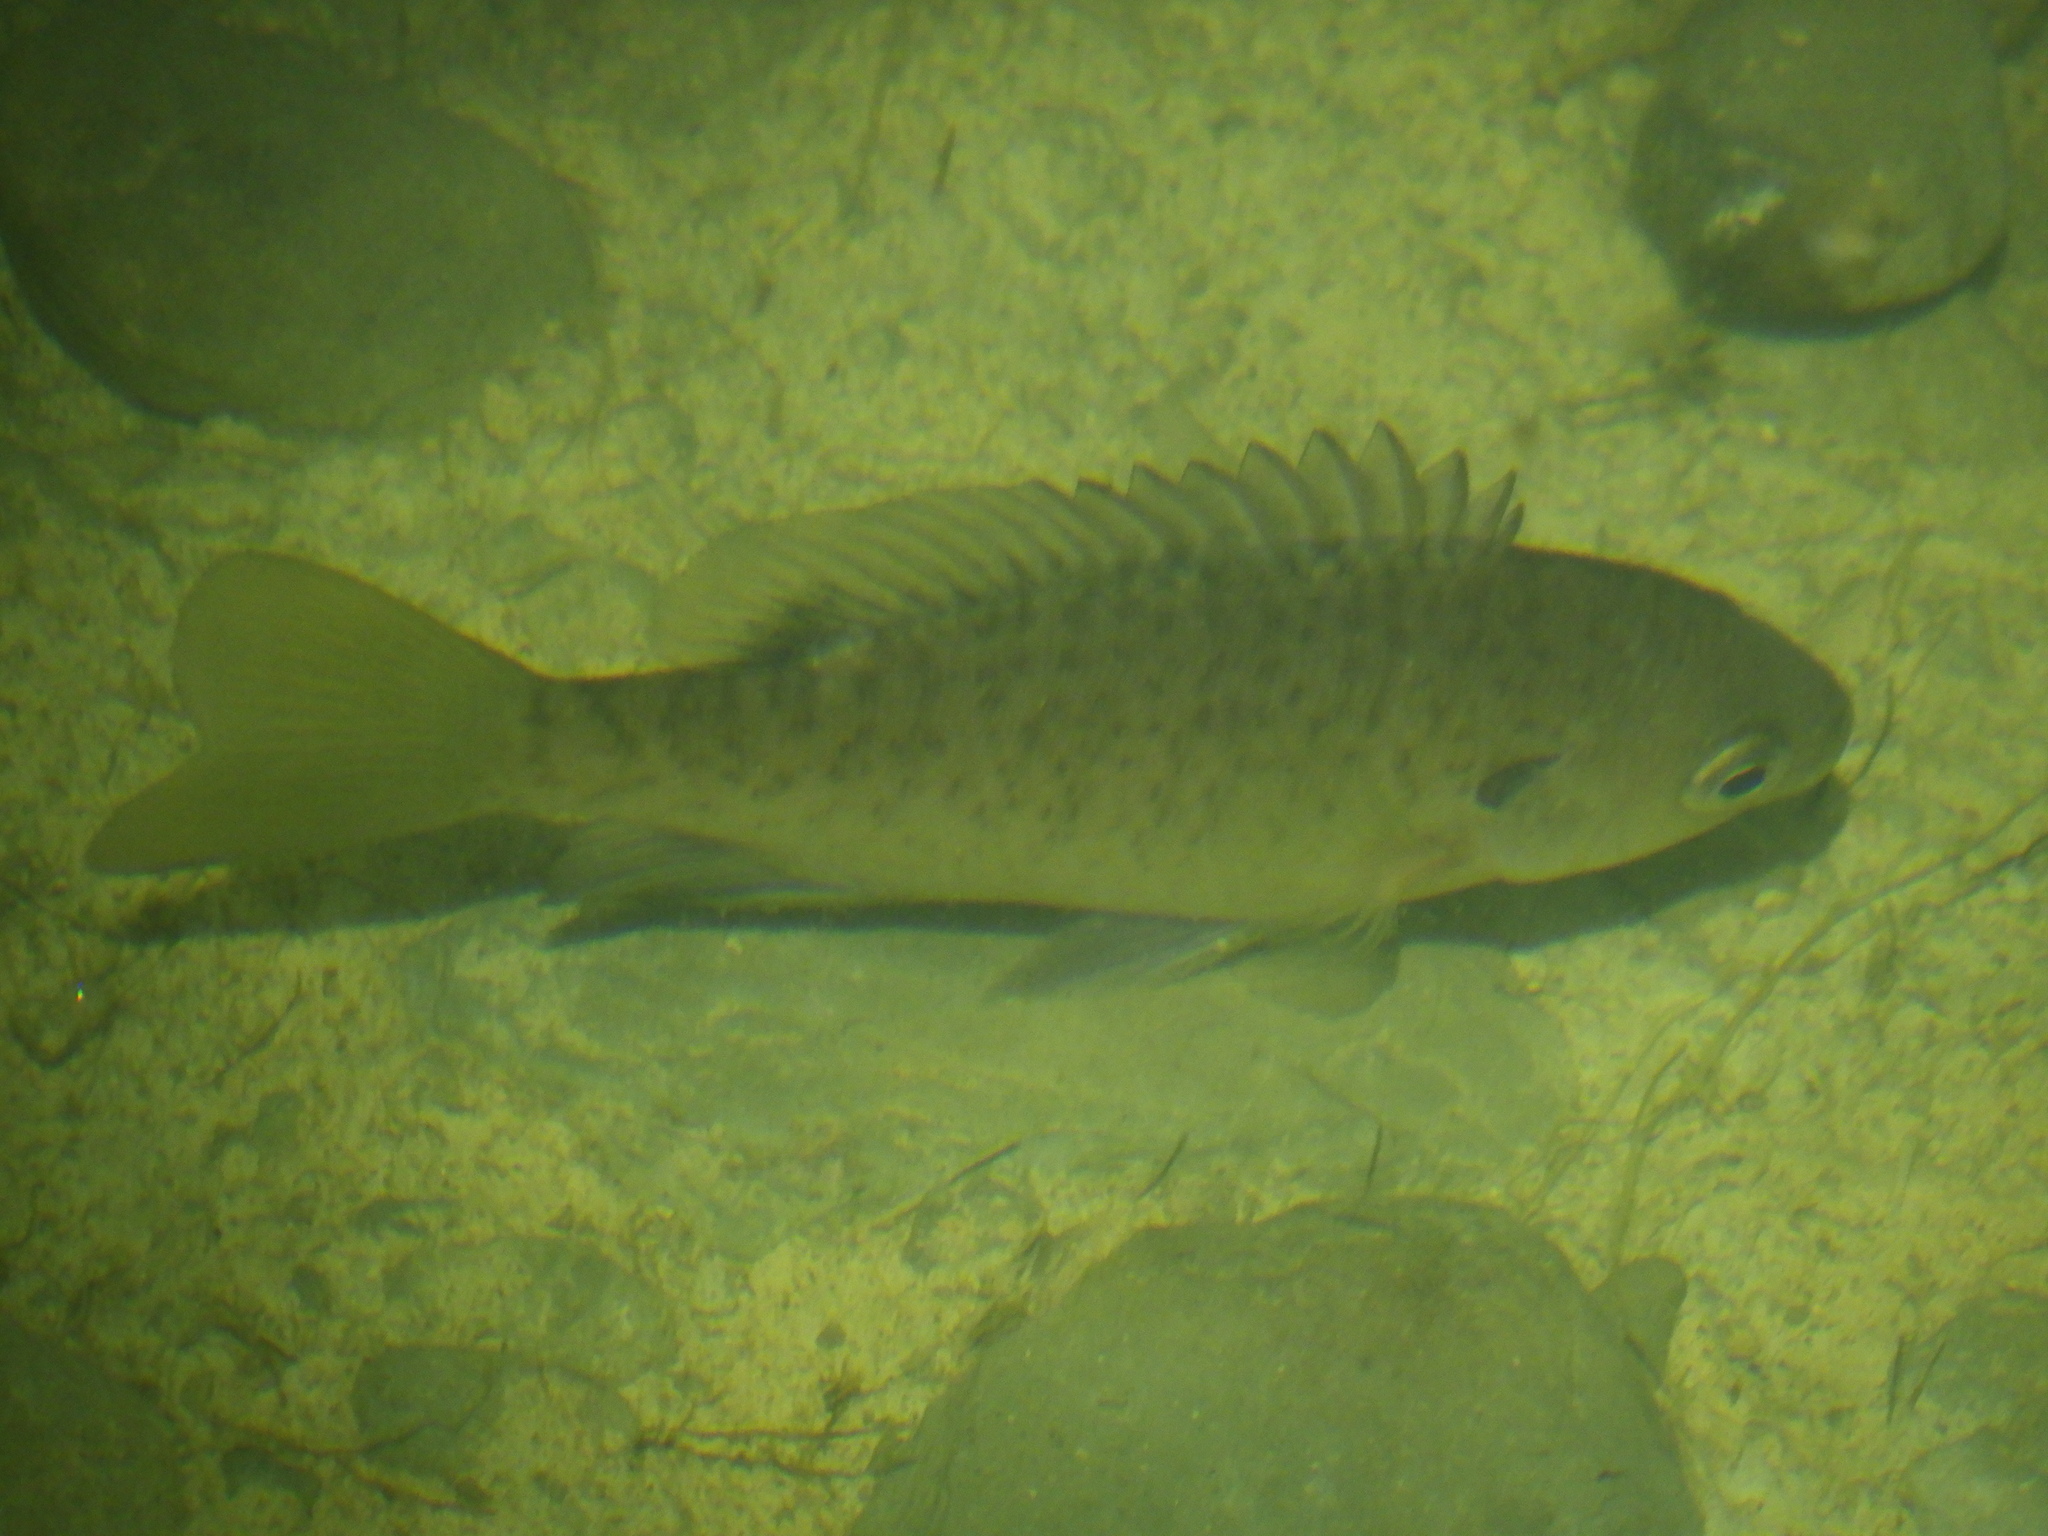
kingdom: Animalia
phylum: Chordata
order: Perciformes
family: Centrarchidae
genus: Lepomis
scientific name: Lepomis macrochirus
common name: Bluegill
